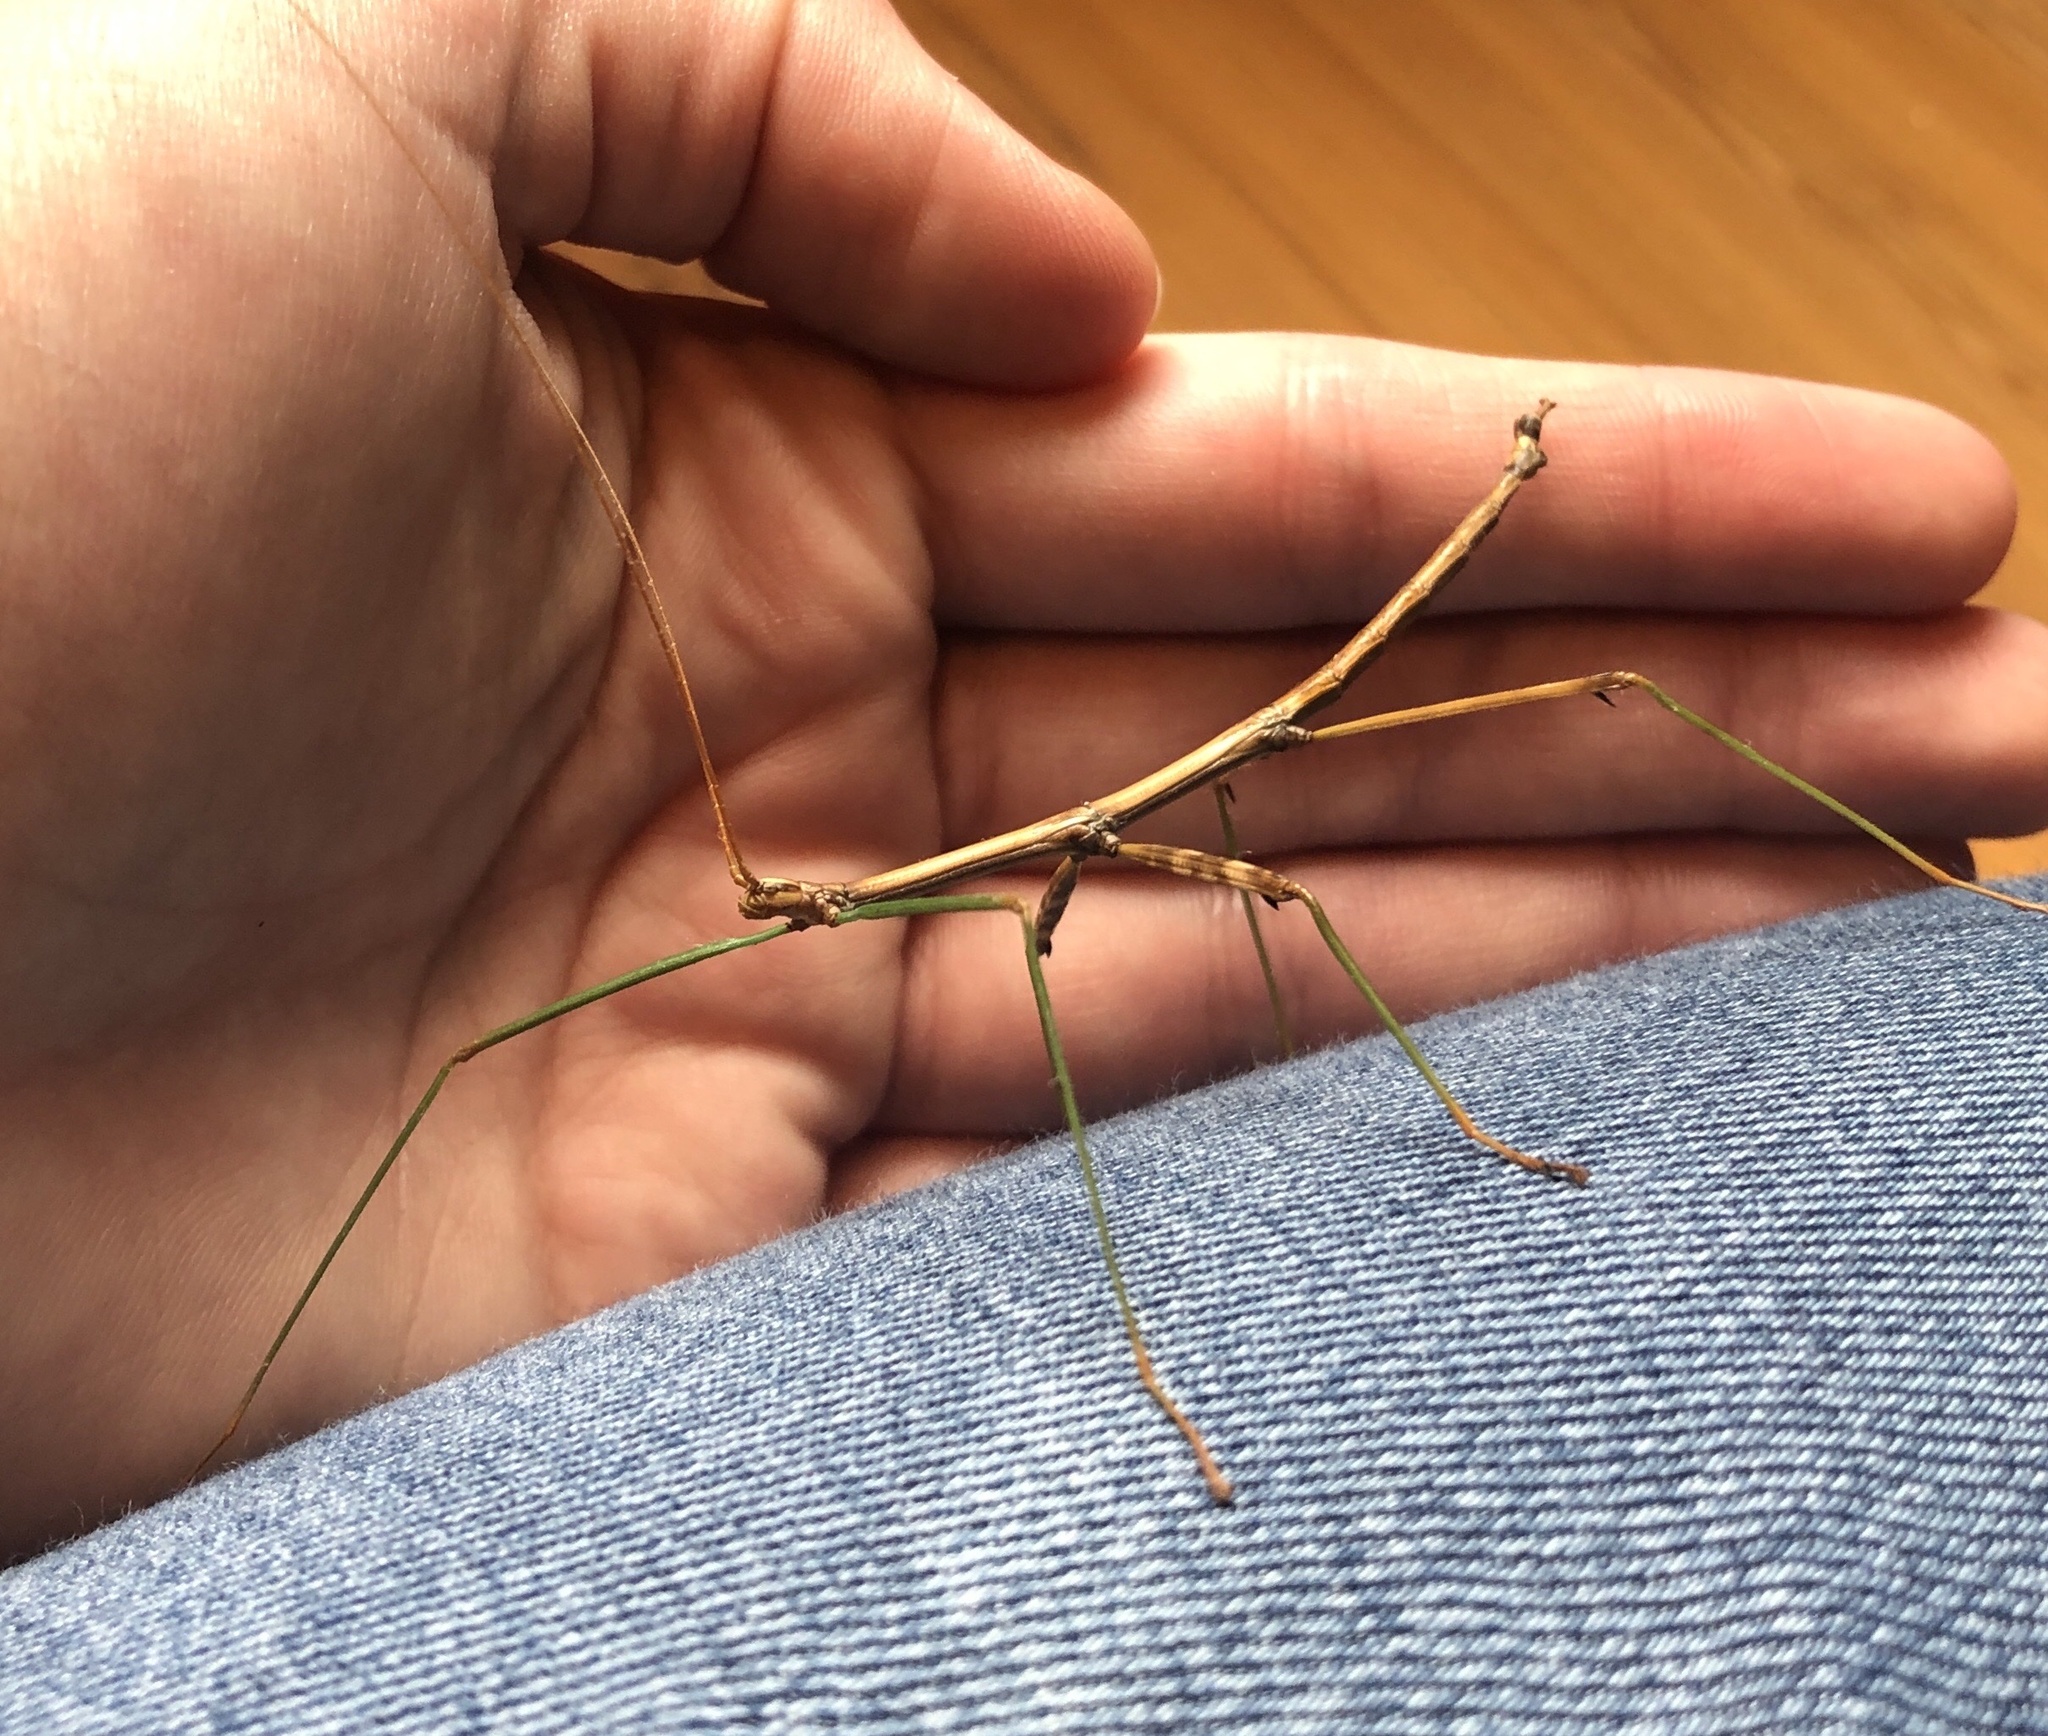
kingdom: Animalia
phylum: Arthropoda
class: Insecta
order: Phasmida
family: Diapheromeridae
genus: Diapheromera
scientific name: Diapheromera femorata
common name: Common american walkingstick
